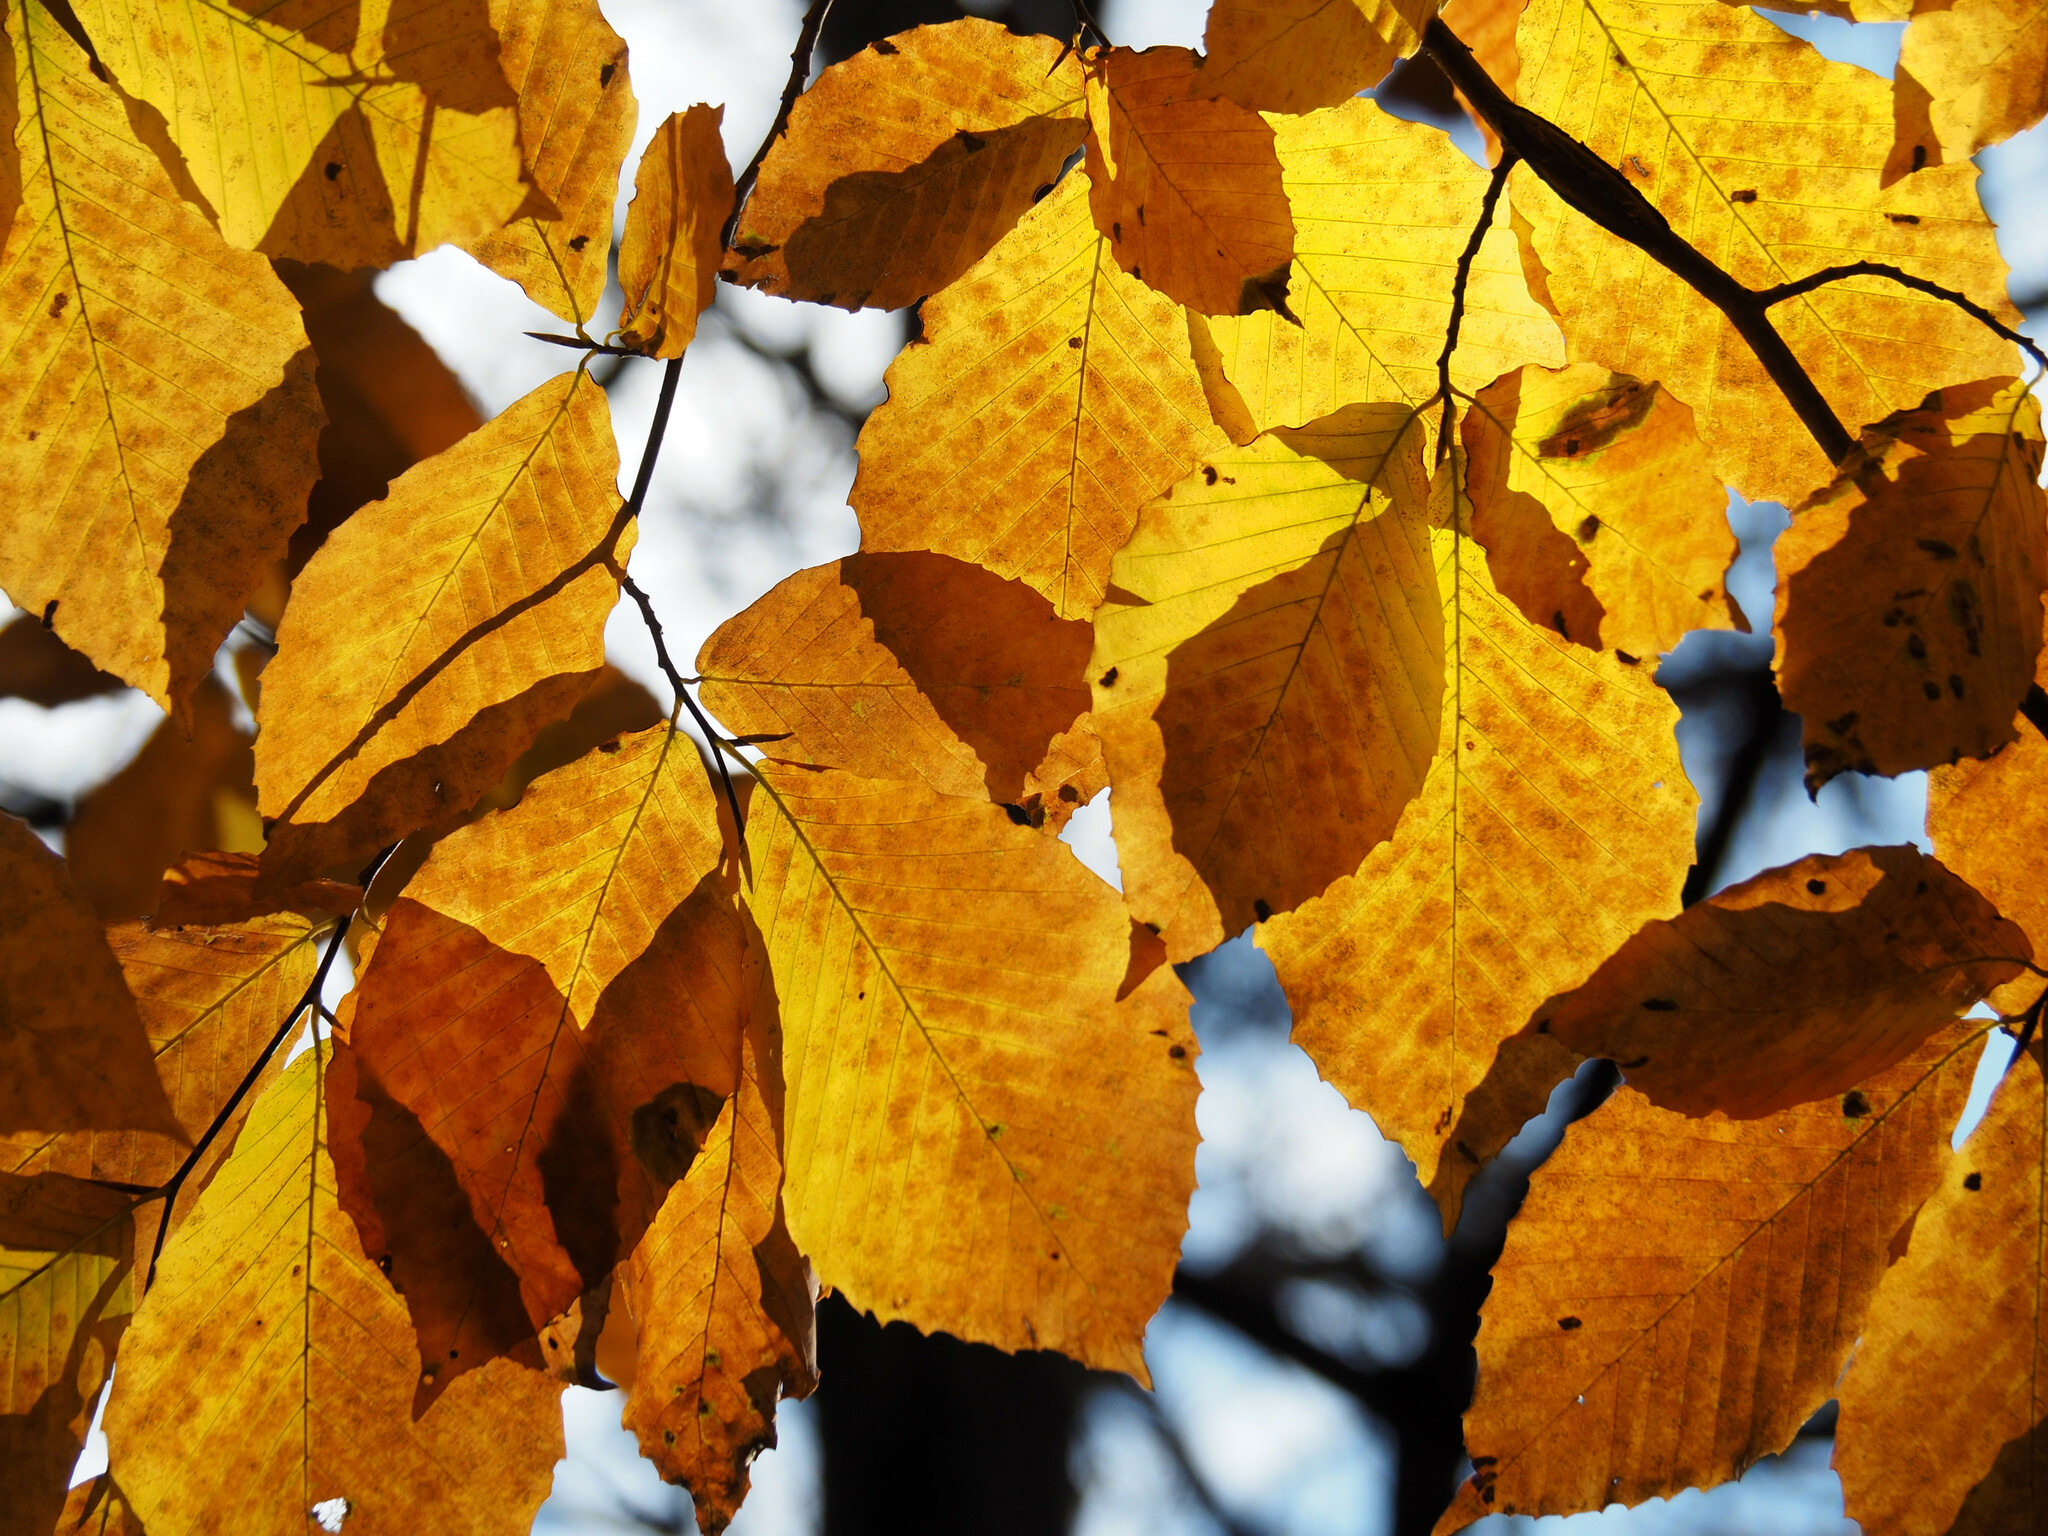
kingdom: Plantae
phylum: Tracheophyta
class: Magnoliopsida
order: Fagales
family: Fagaceae
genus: Fagus
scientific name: Fagus grandifolia
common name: American beech
